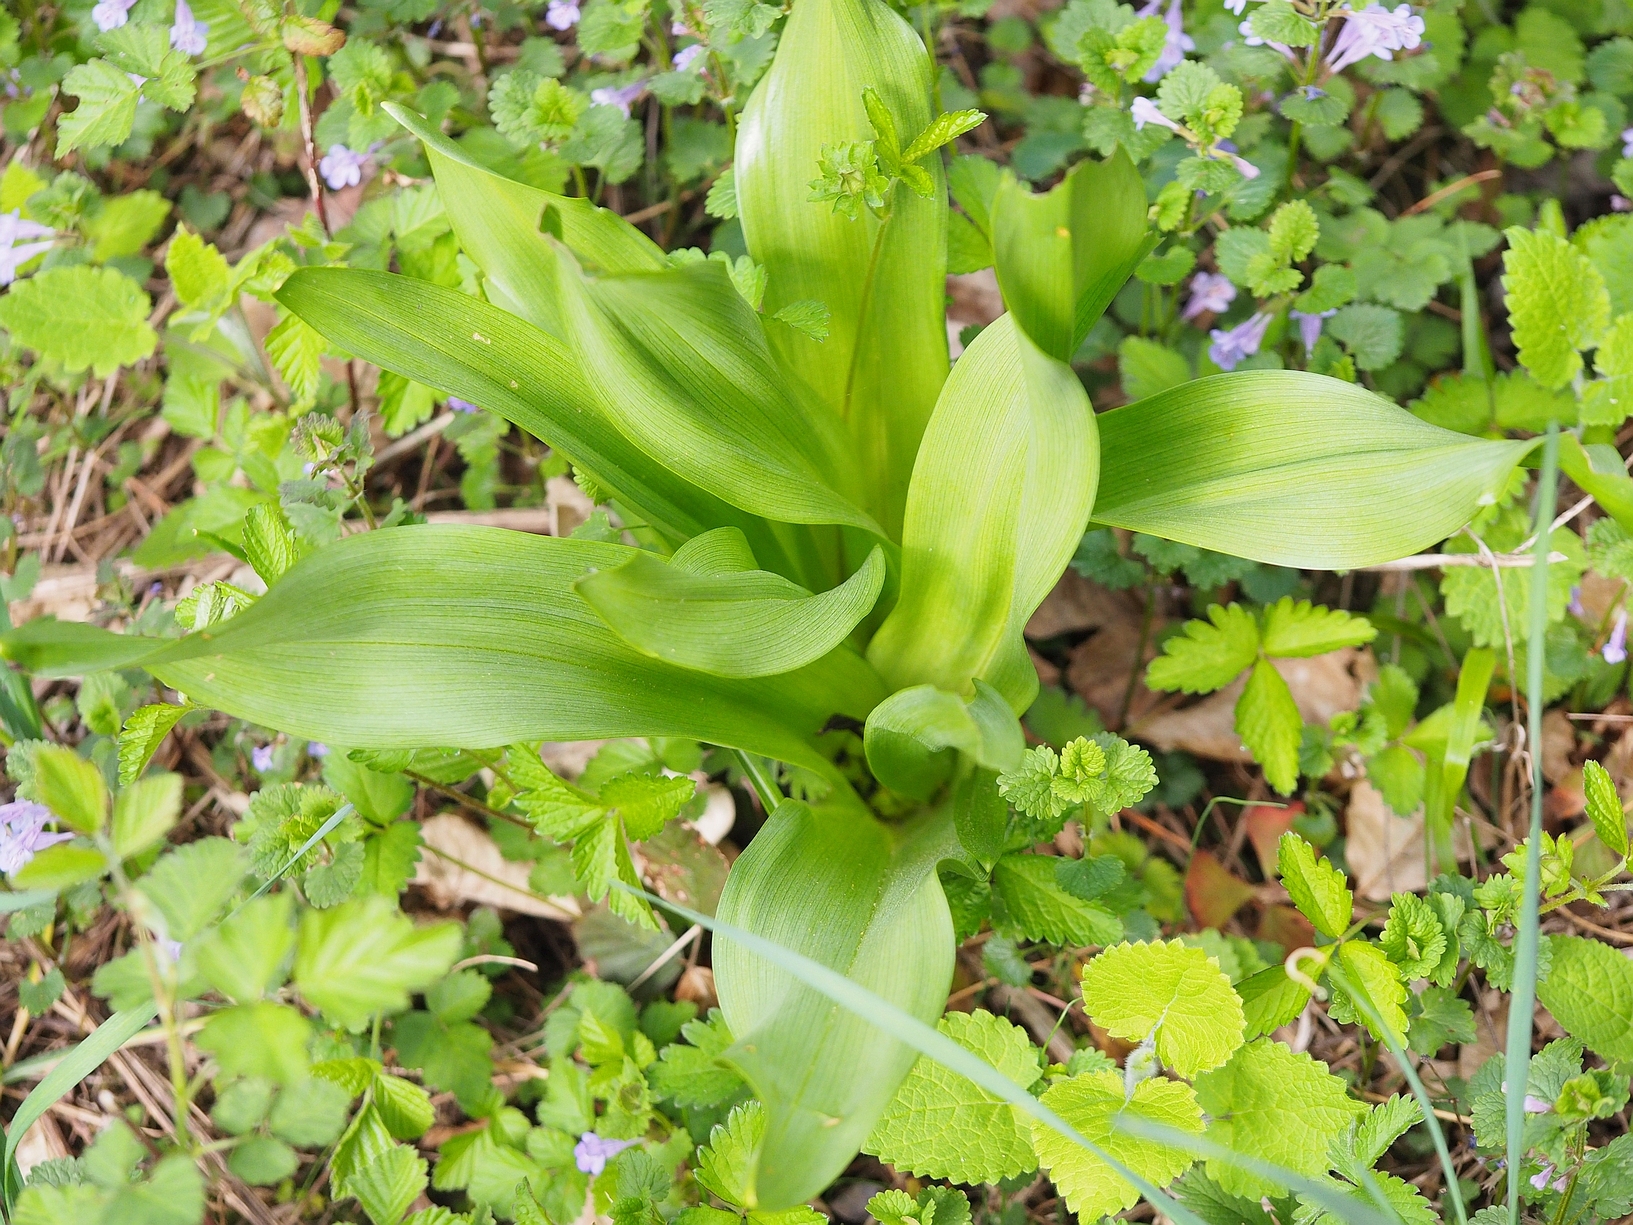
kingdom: Plantae
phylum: Tracheophyta
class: Liliopsida
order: Liliales
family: Colchicaceae
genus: Colchicum
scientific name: Colchicum autumnale
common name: Autumn crocus
